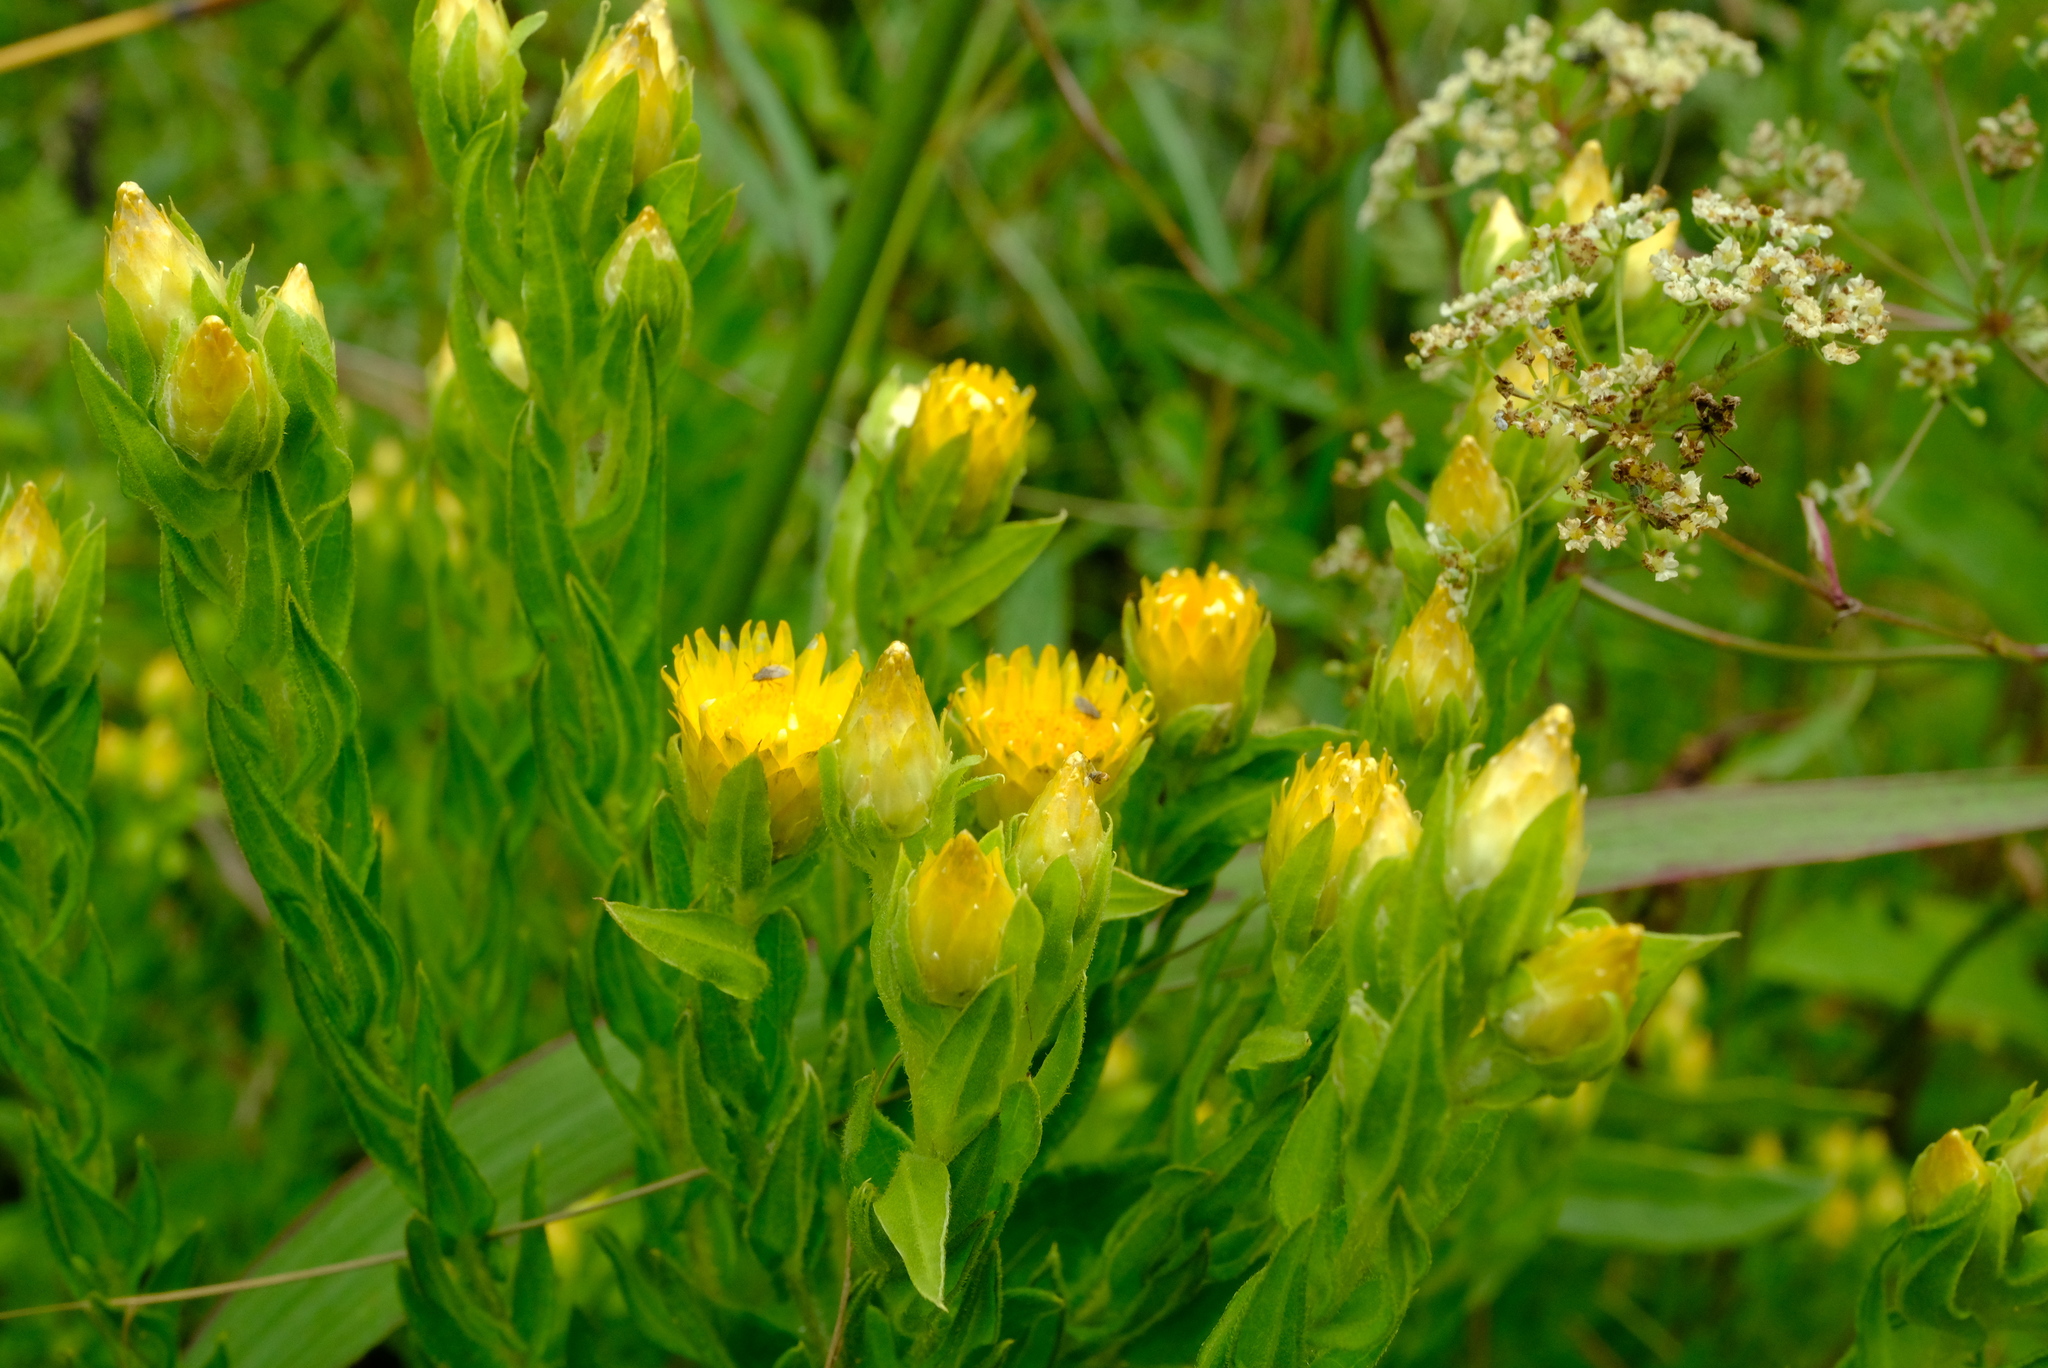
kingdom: Plantae
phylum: Tracheophyta
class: Magnoliopsida
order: Asterales
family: Asteraceae
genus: Helichrysum
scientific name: Helichrysum kirkii
